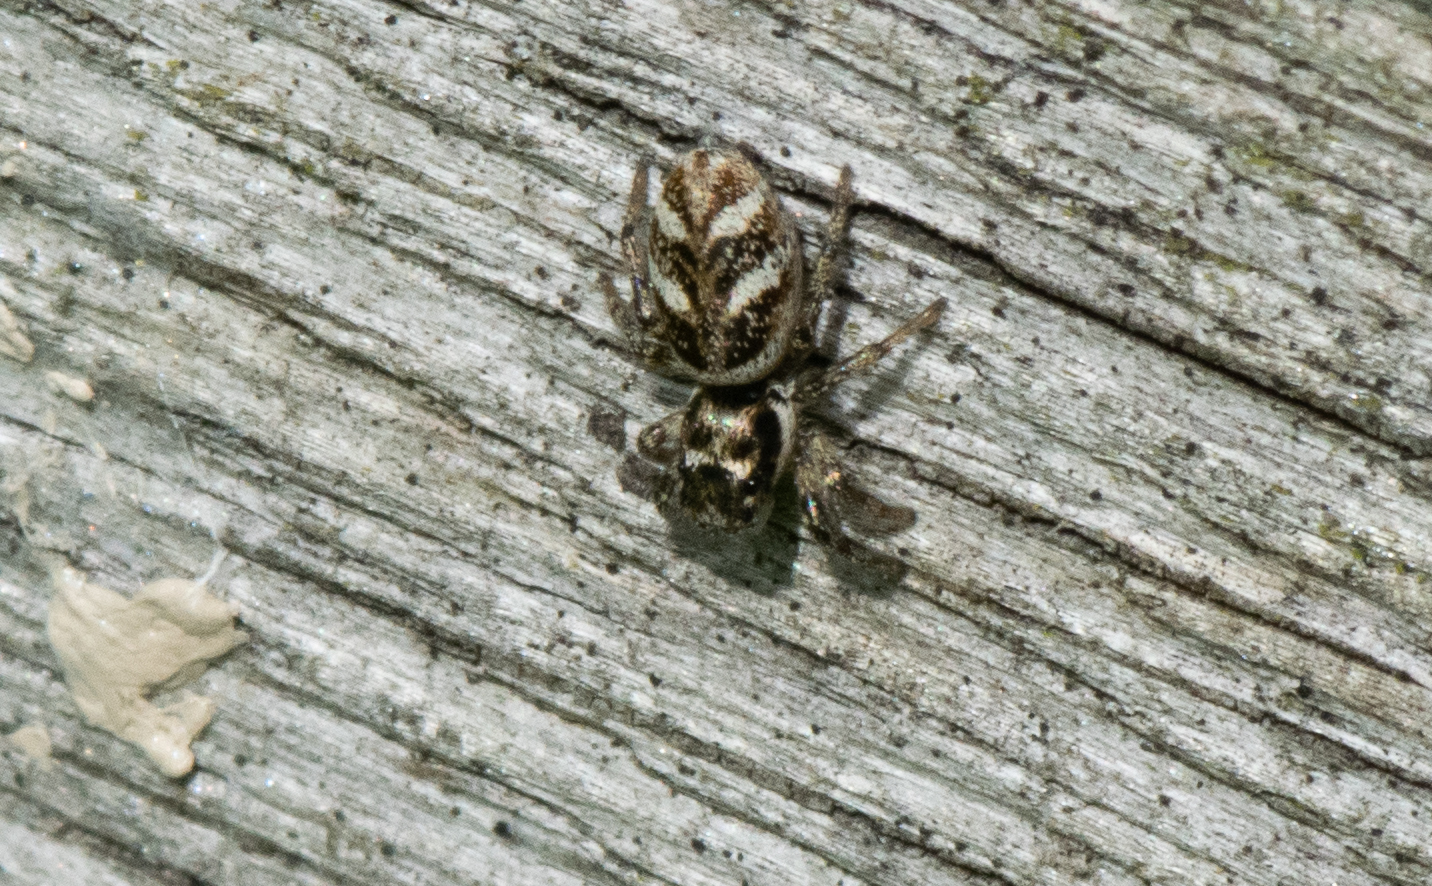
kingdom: Animalia
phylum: Arthropoda
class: Arachnida
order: Araneae
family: Salticidae
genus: Salticus
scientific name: Salticus scenicus
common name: Zebra jumper
